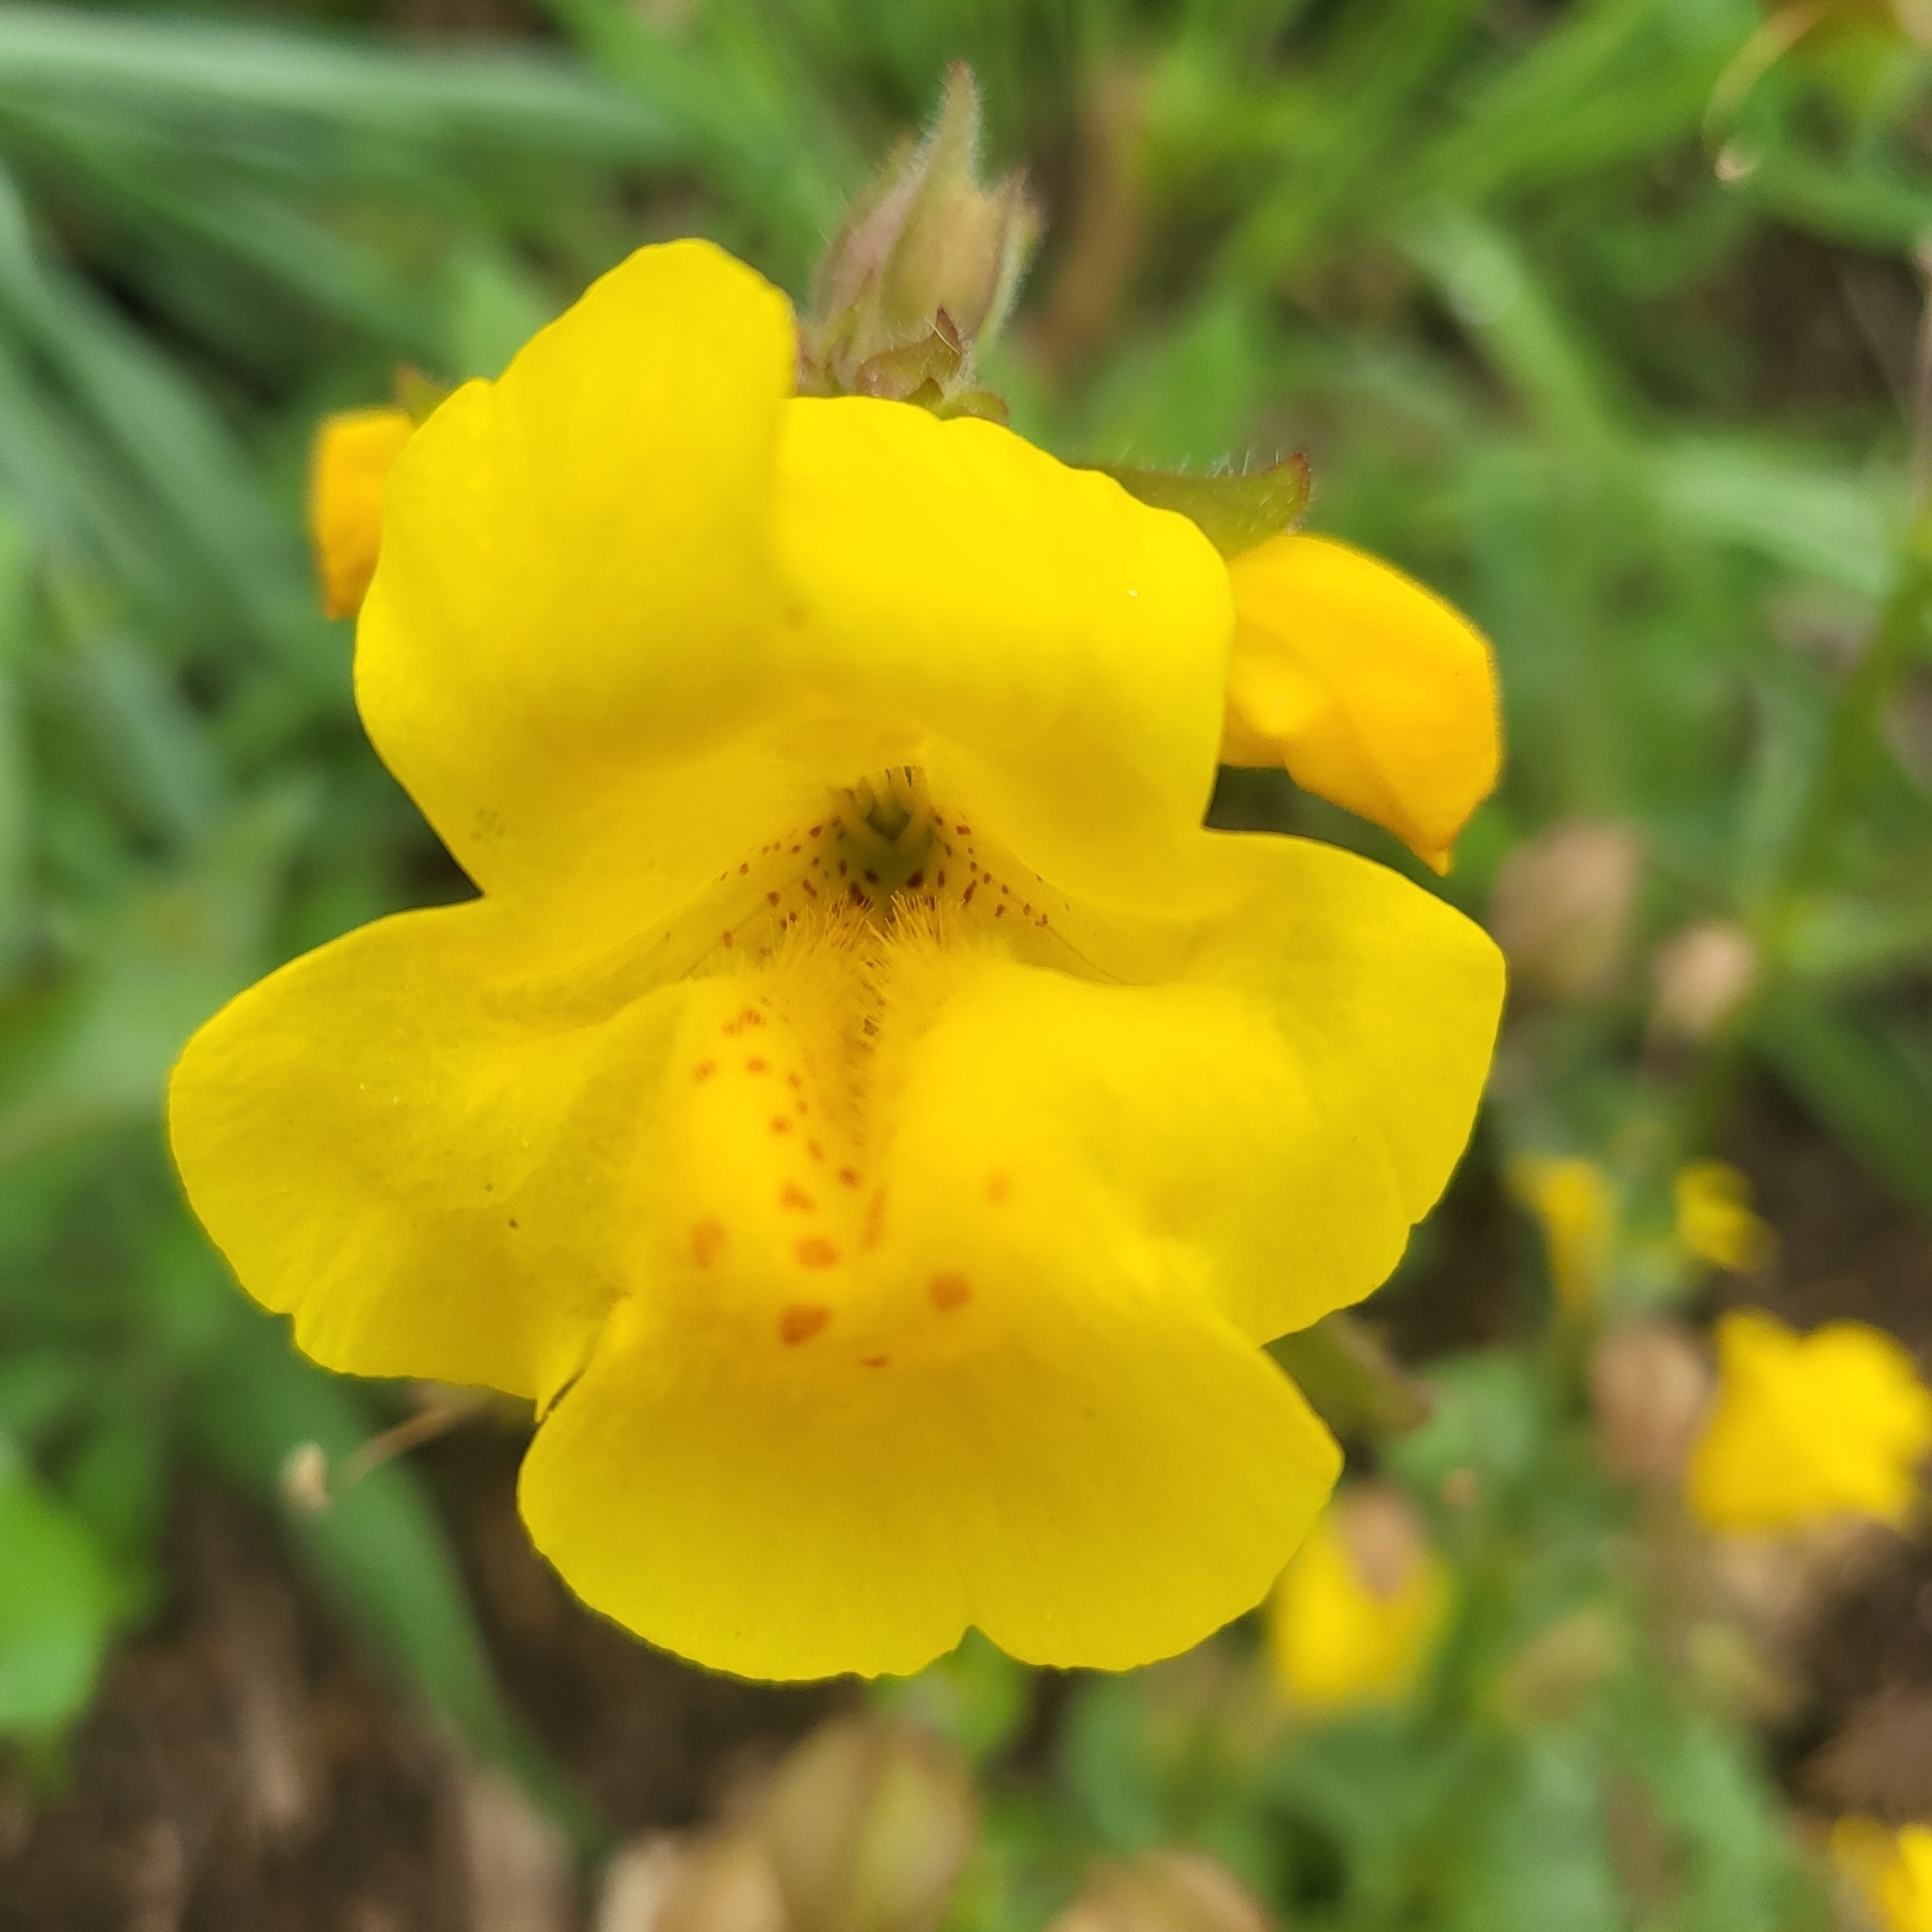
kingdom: Plantae
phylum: Tracheophyta
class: Magnoliopsida
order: Lamiales
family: Phrymaceae
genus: Erythranthe
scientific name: Erythranthe guttata
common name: Monkeyflower
